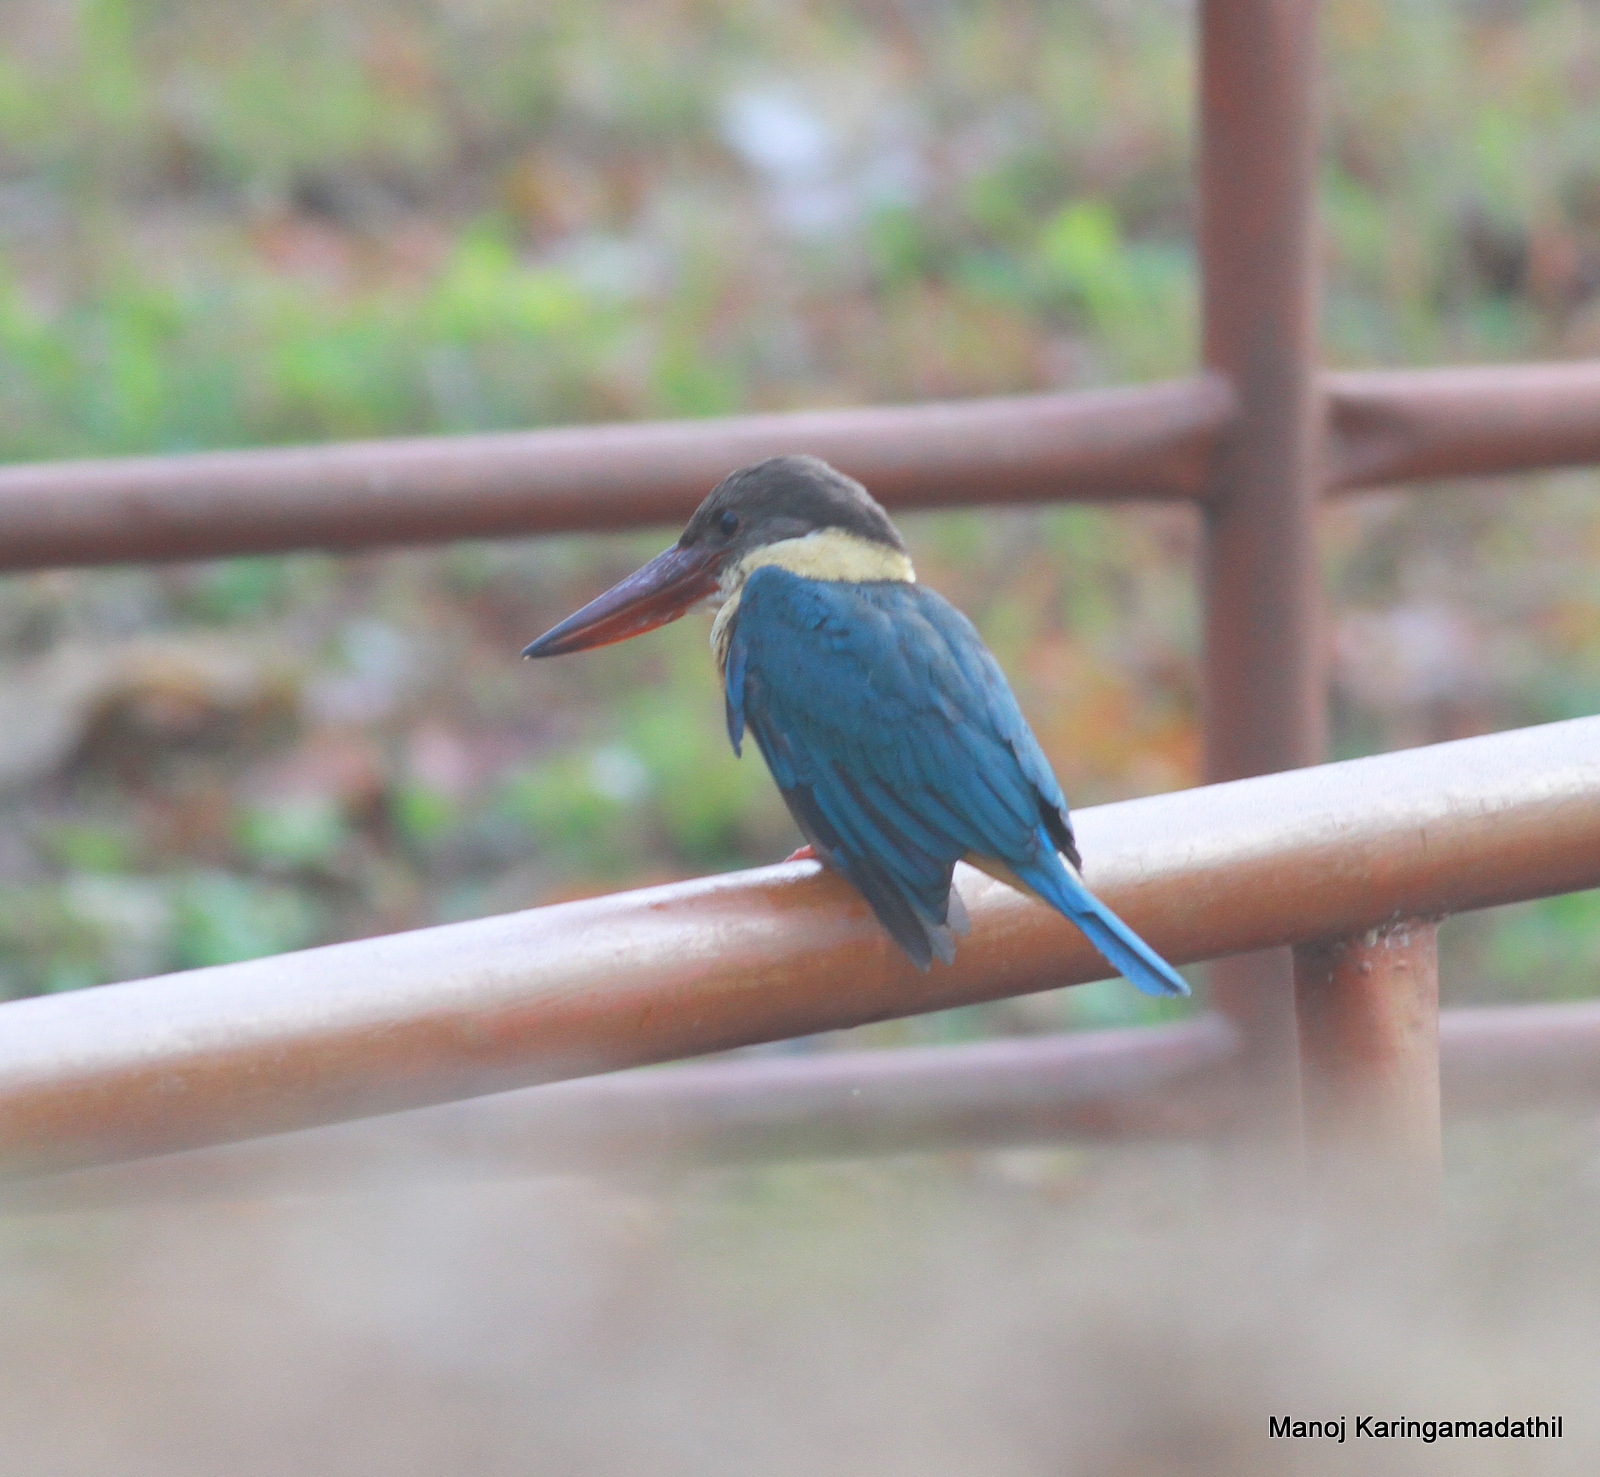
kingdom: Animalia
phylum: Chordata
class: Aves
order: Coraciiformes
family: Alcedinidae
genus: Pelargopsis
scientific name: Pelargopsis capensis
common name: Stork-billed kingfisher
